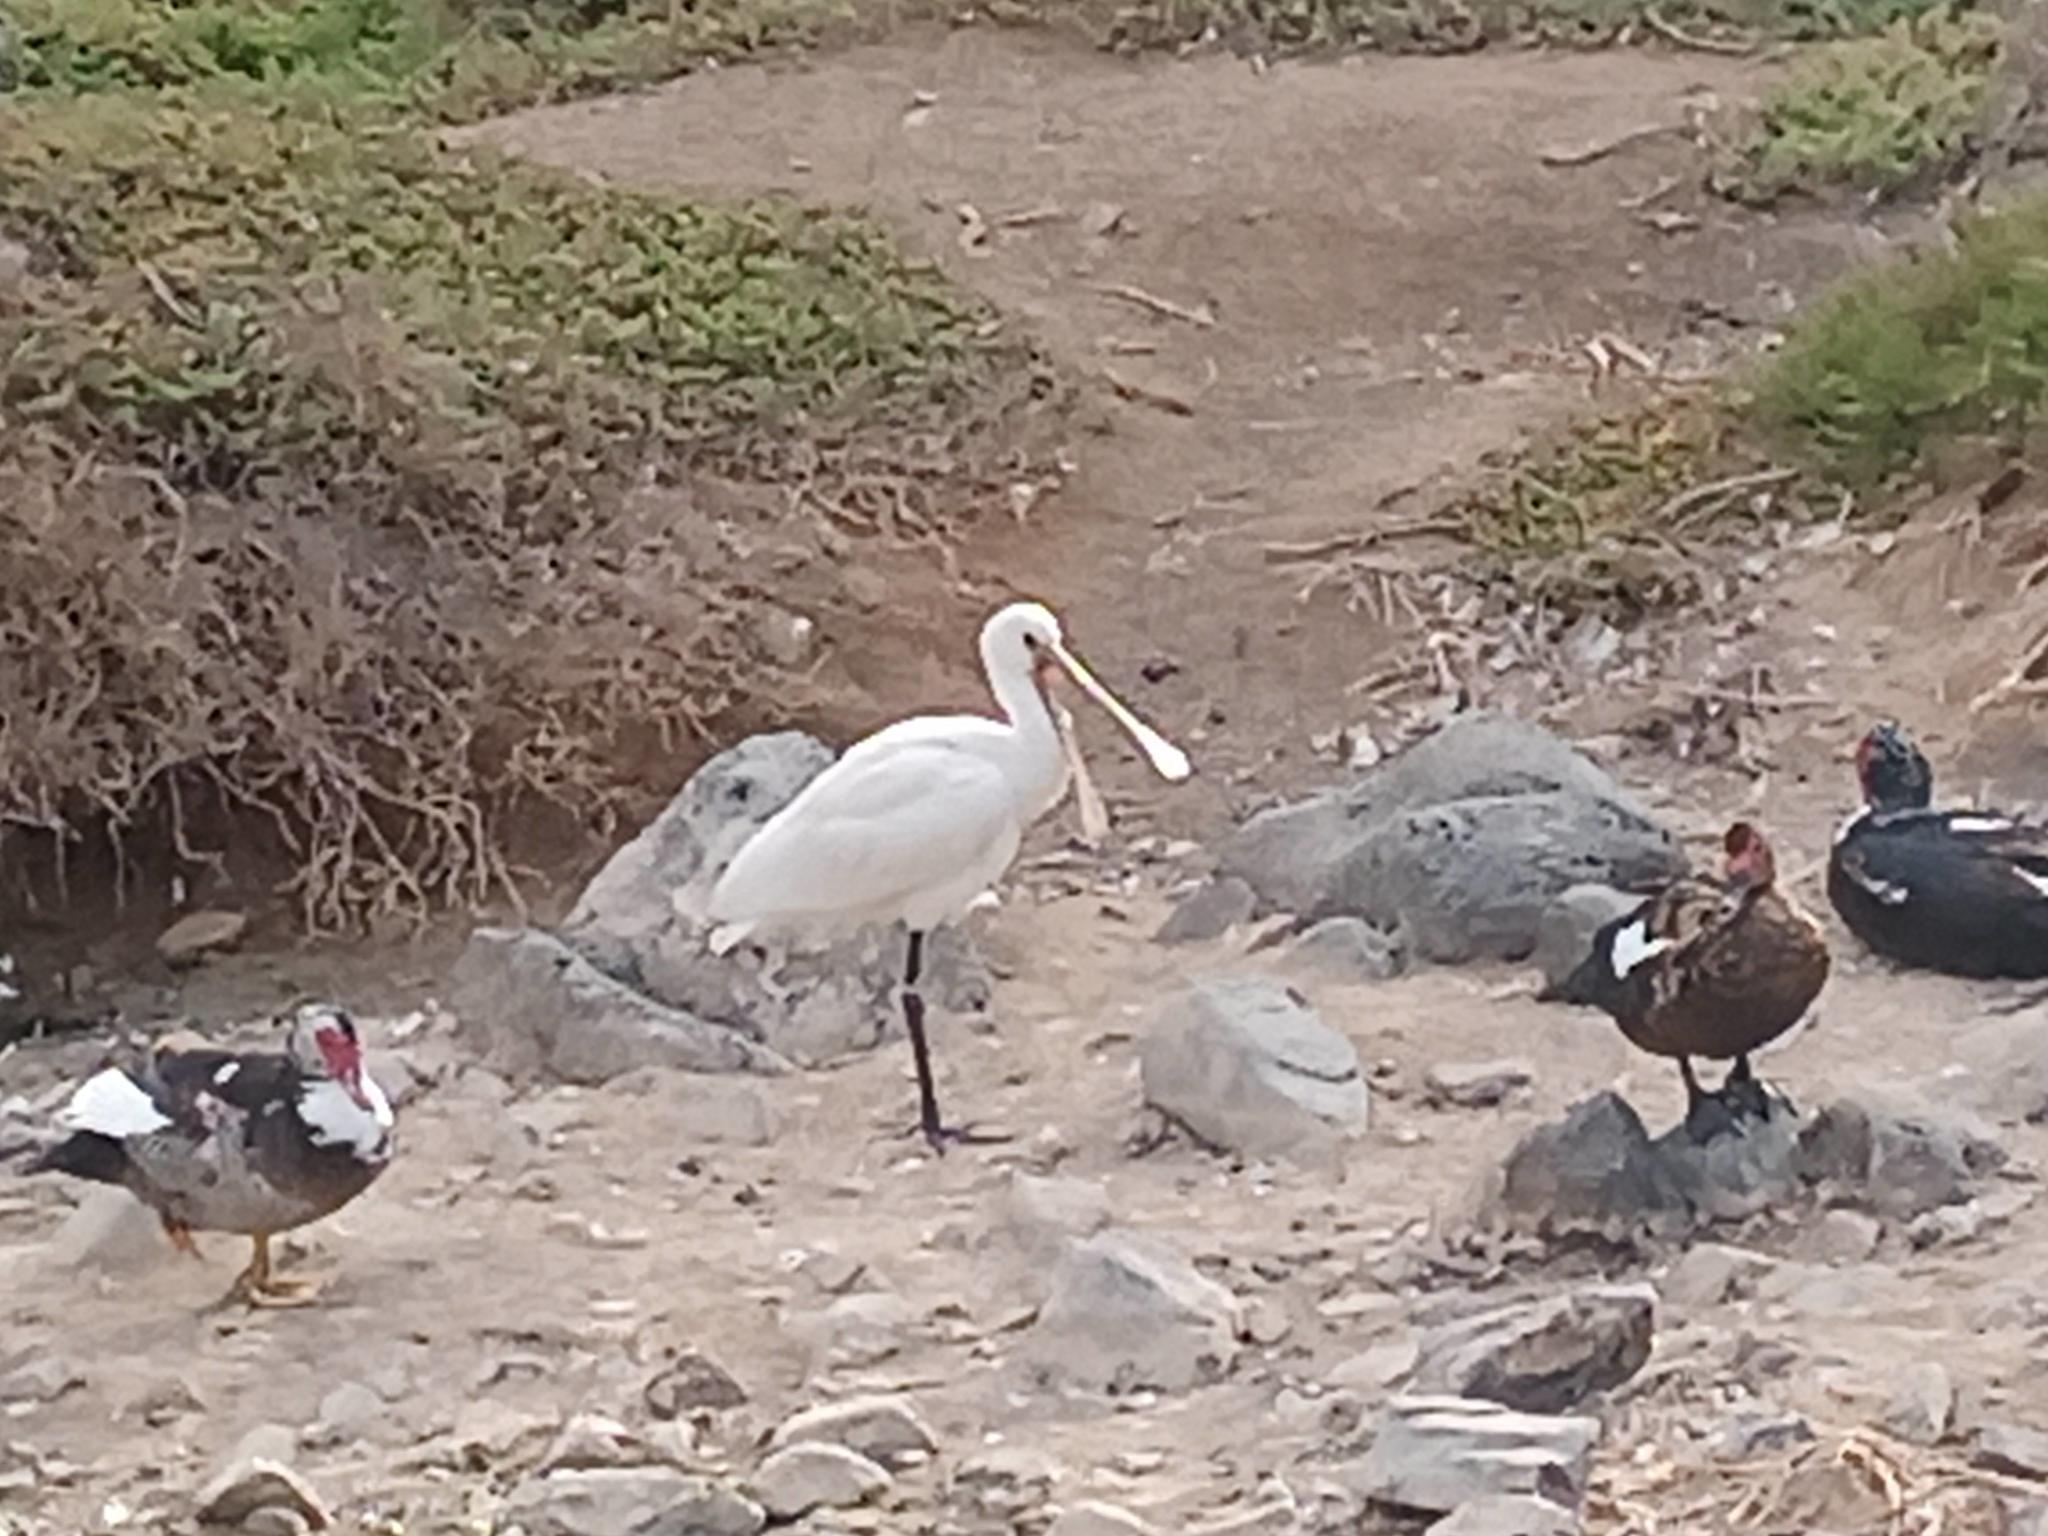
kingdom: Animalia
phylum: Chordata
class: Aves
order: Pelecaniformes
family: Threskiornithidae
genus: Platalea
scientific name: Platalea leucorodia
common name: Eurasian spoonbill
